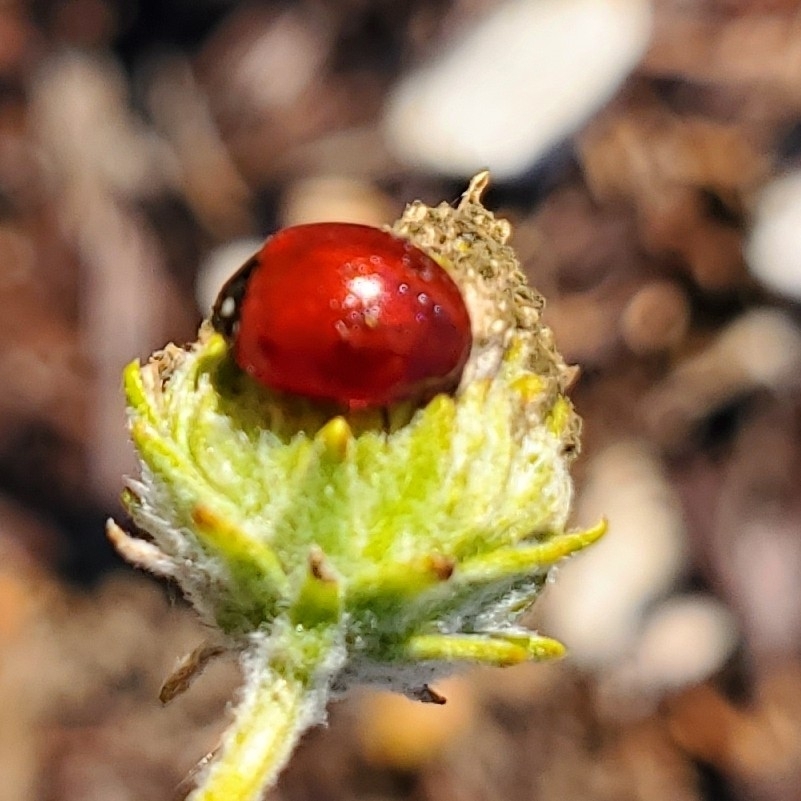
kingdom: Animalia
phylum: Arthropoda
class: Insecta
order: Coleoptera
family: Coccinellidae
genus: Cycloneda
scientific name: Cycloneda sanguinea
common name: Ladybird beetle
